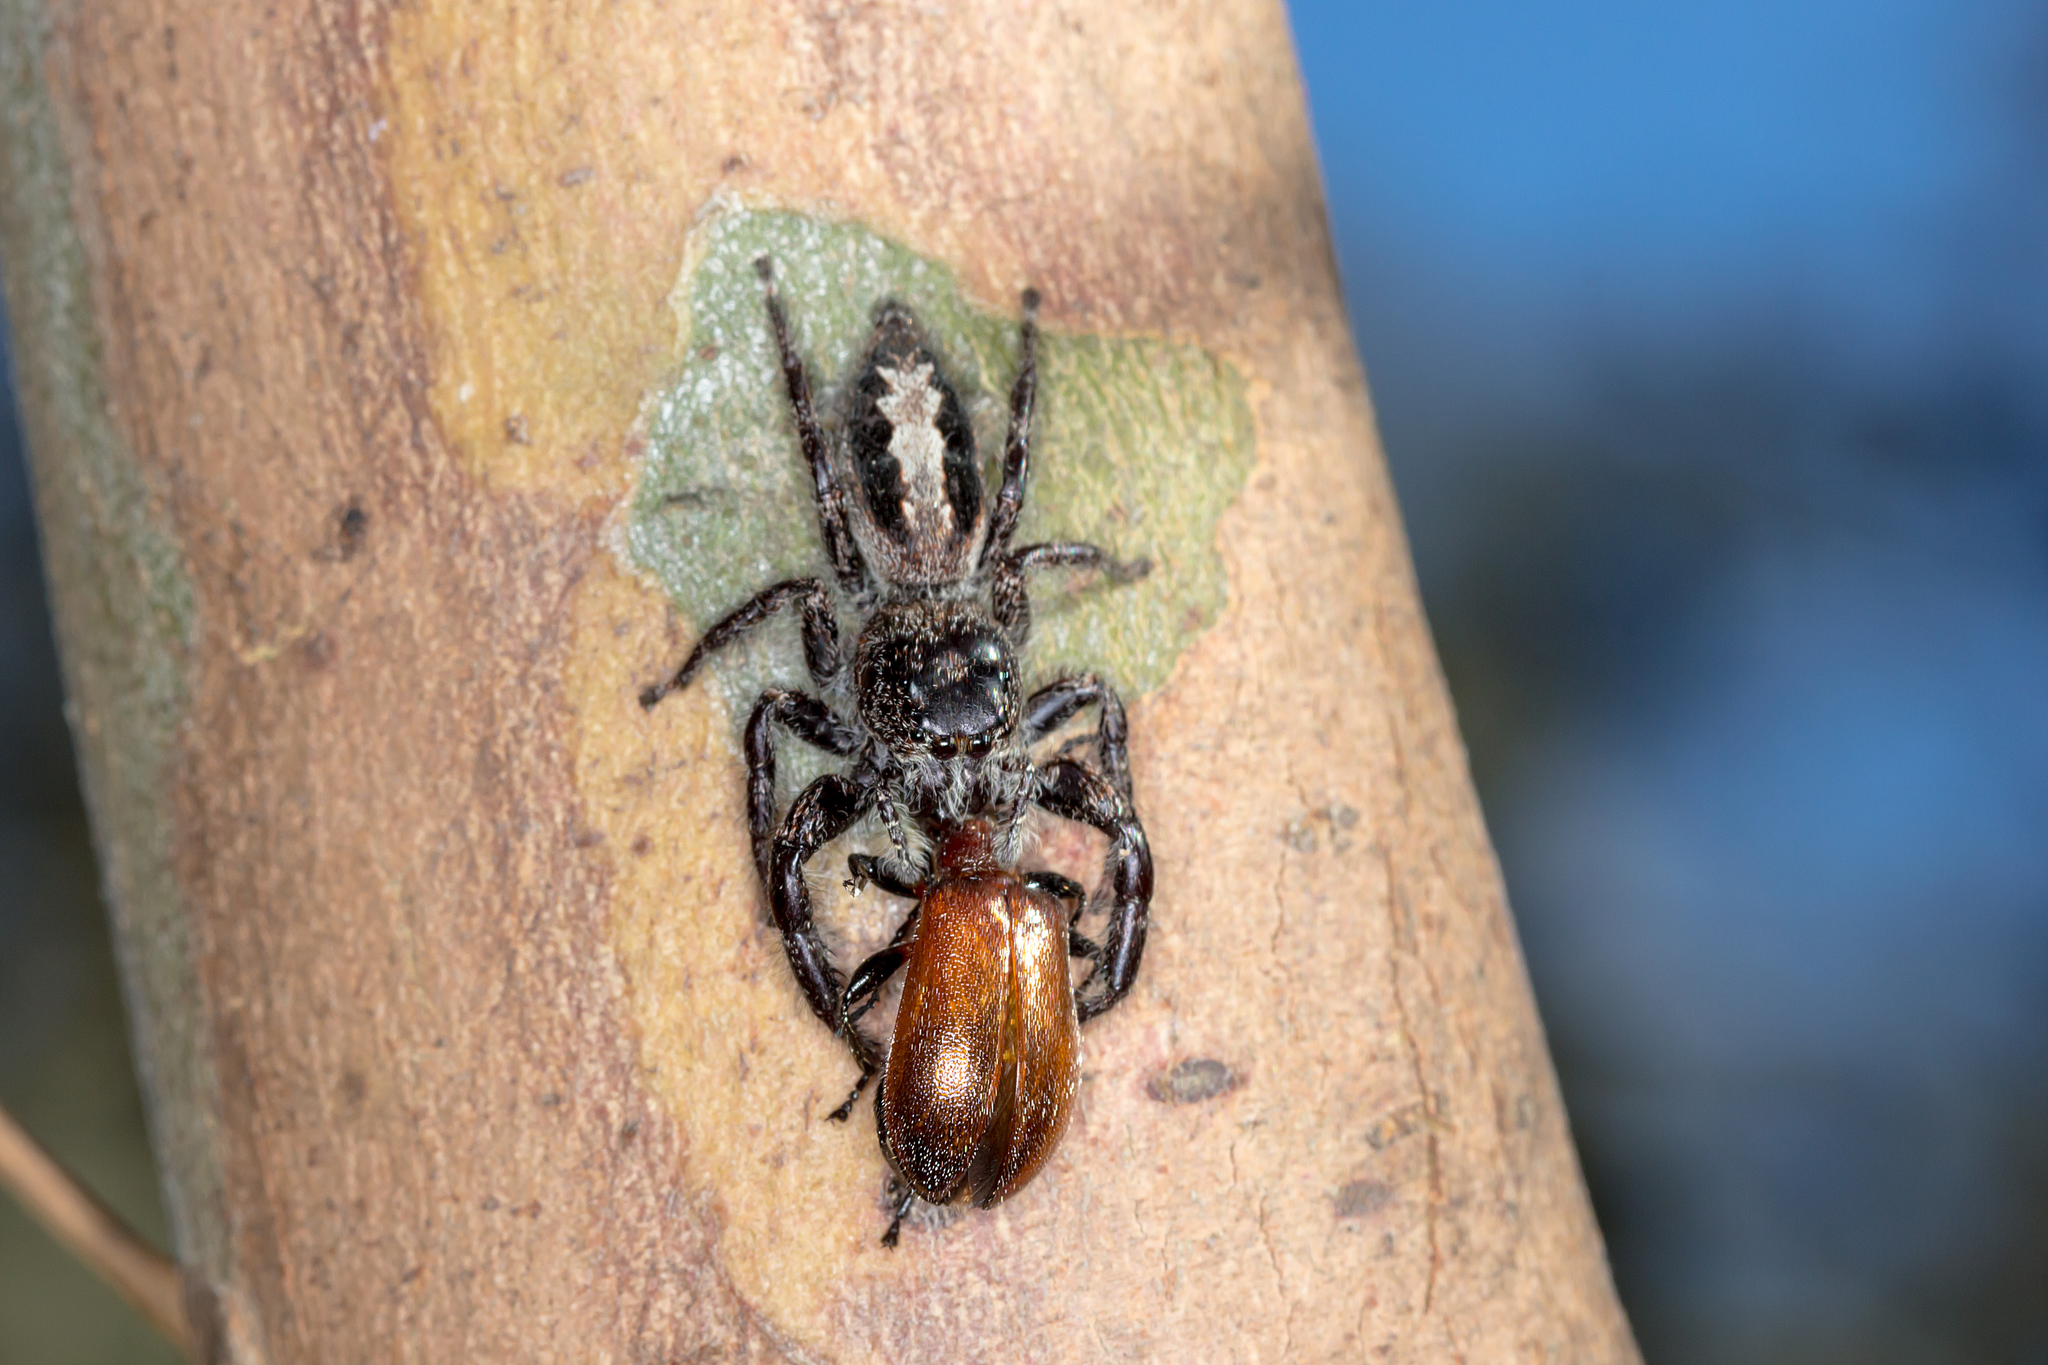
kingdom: Animalia
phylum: Arthropoda
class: Arachnida
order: Araneae
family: Salticidae
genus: Sandalodes
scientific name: Sandalodes superbus
